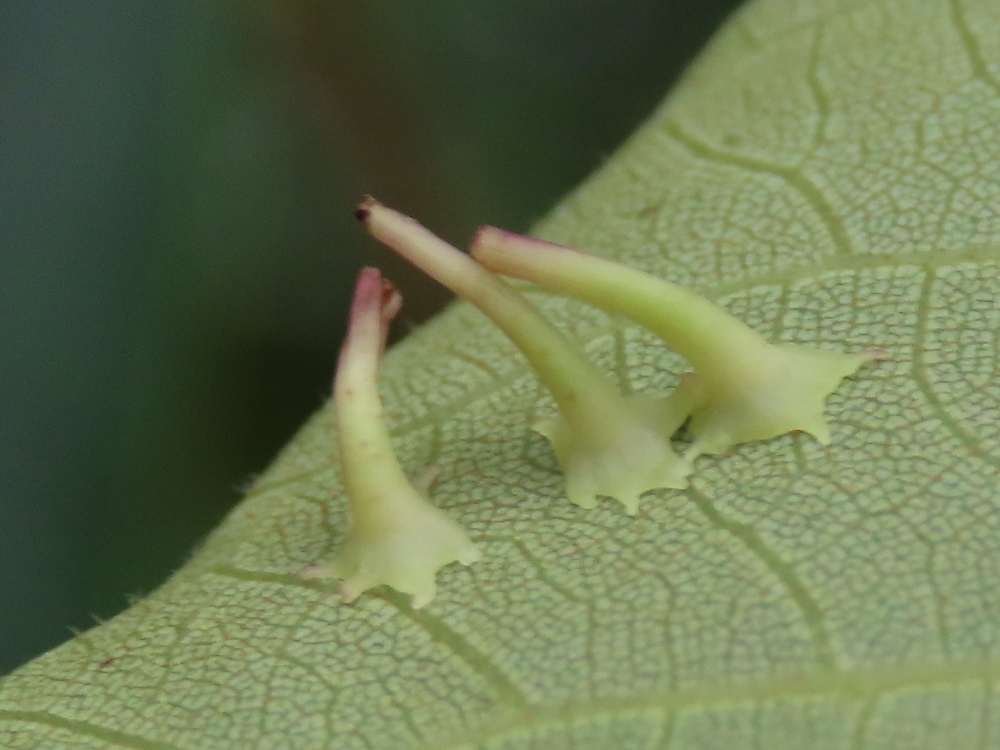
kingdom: Animalia
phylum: Arthropoda
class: Insecta
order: Diptera
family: Cecidomyiidae
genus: Caryomyia
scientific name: Caryomyia stellata
